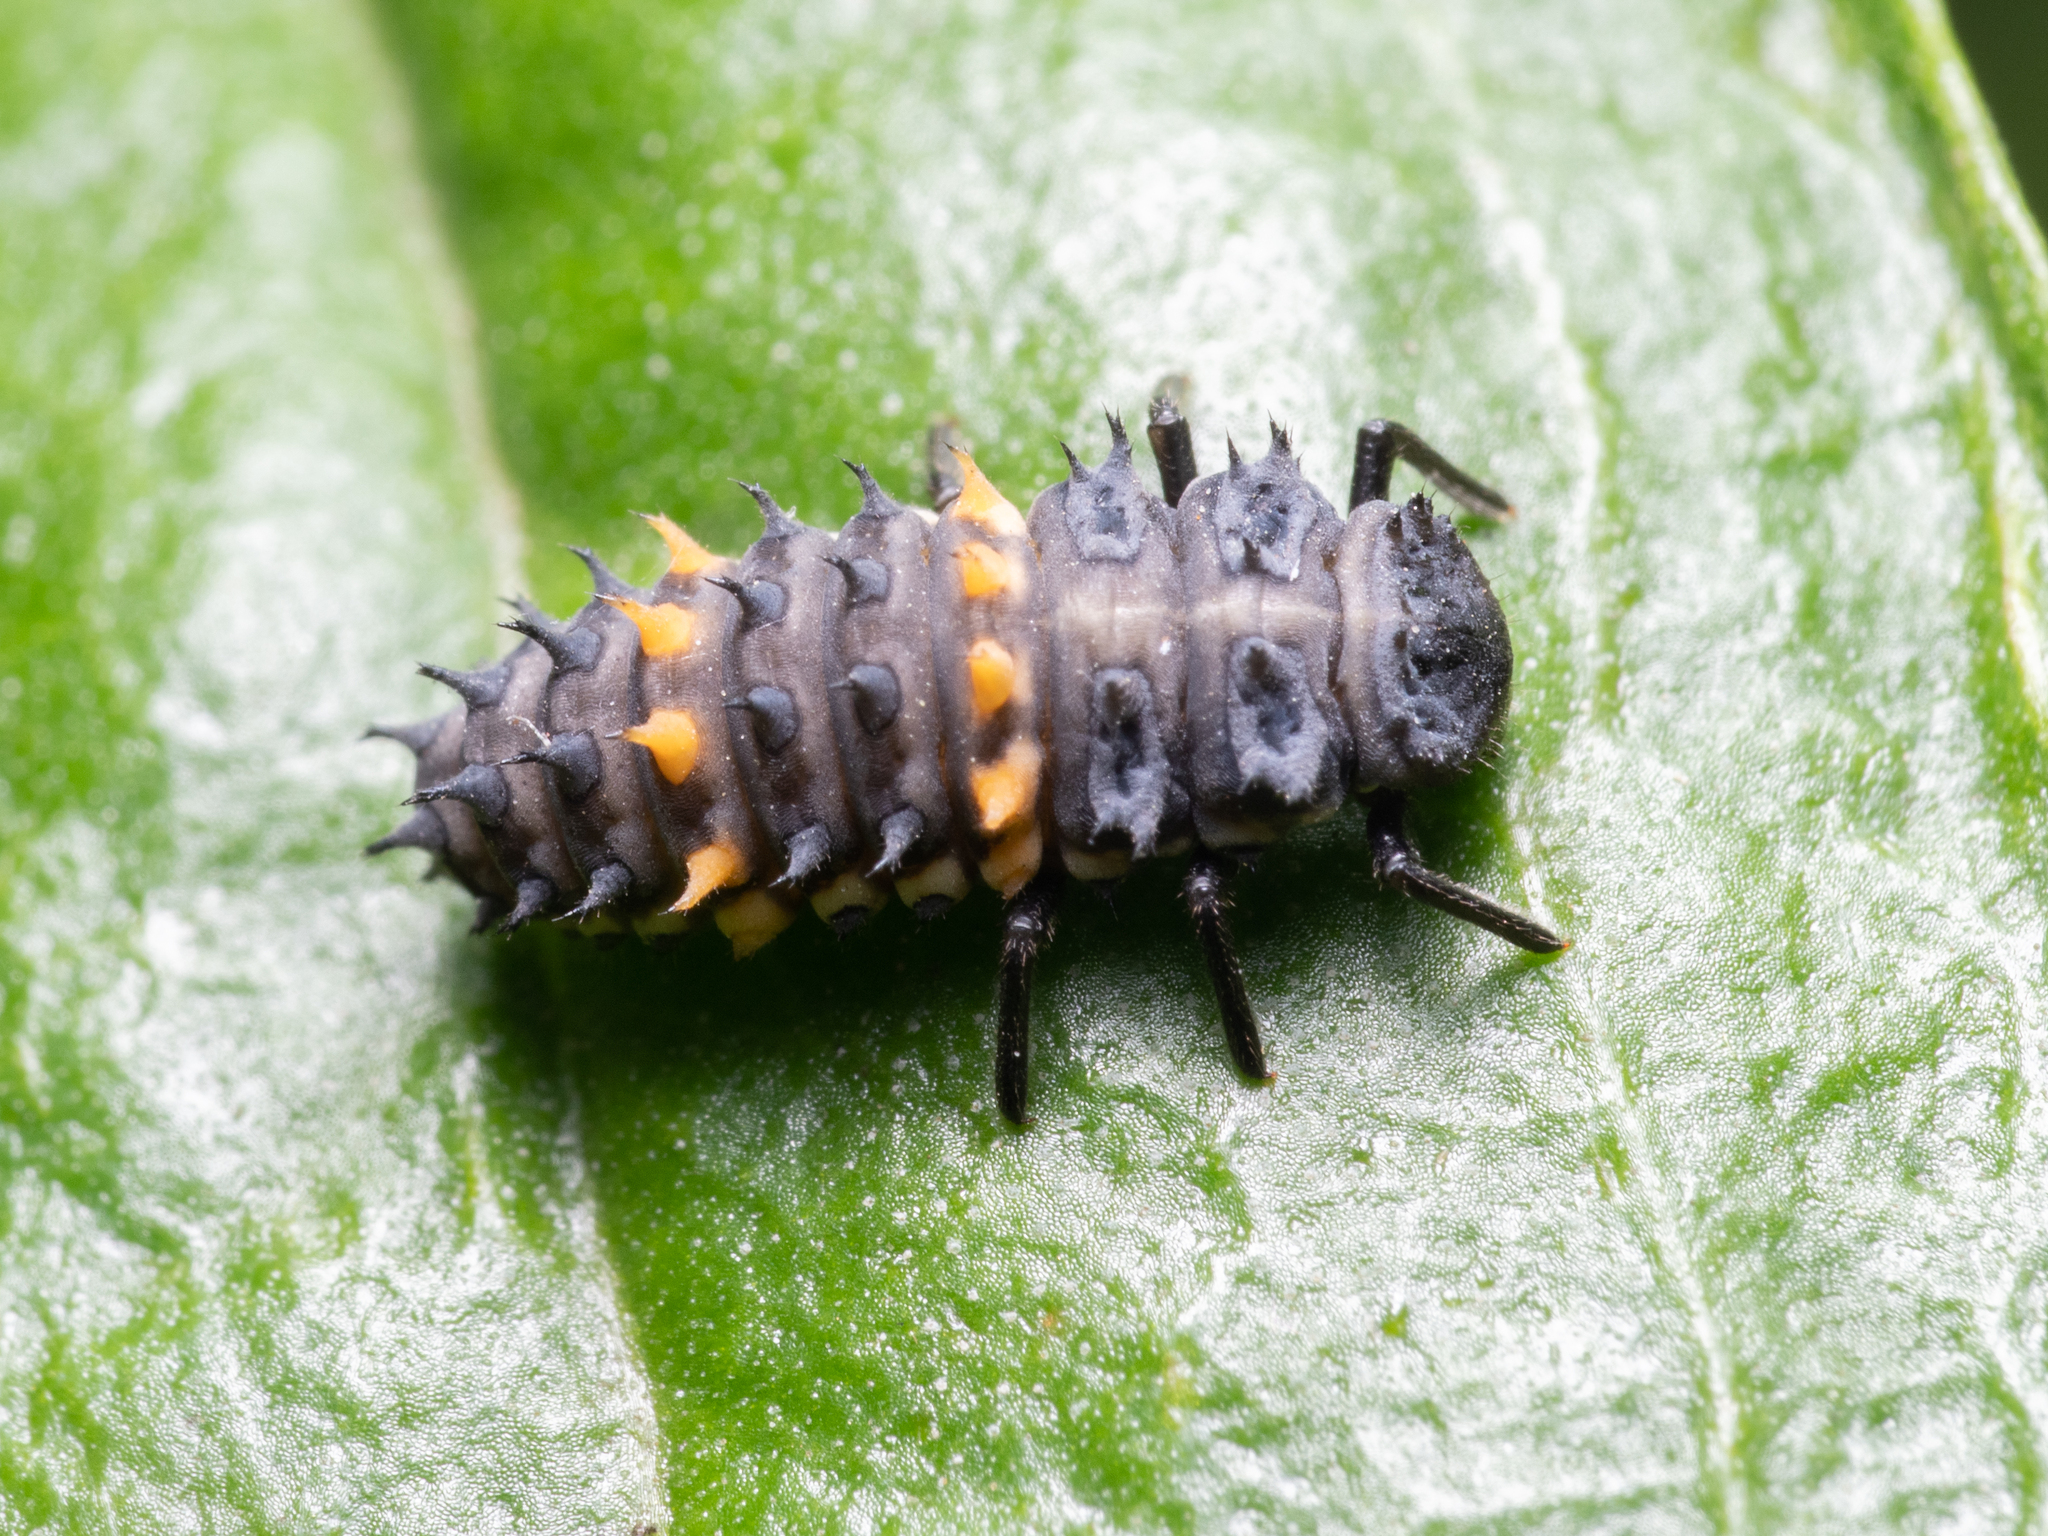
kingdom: Animalia
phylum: Arthropoda
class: Insecta
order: Coleoptera
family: Coccinellidae
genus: Harmonia
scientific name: Harmonia conformis
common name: Common spotted ladybird beetle
